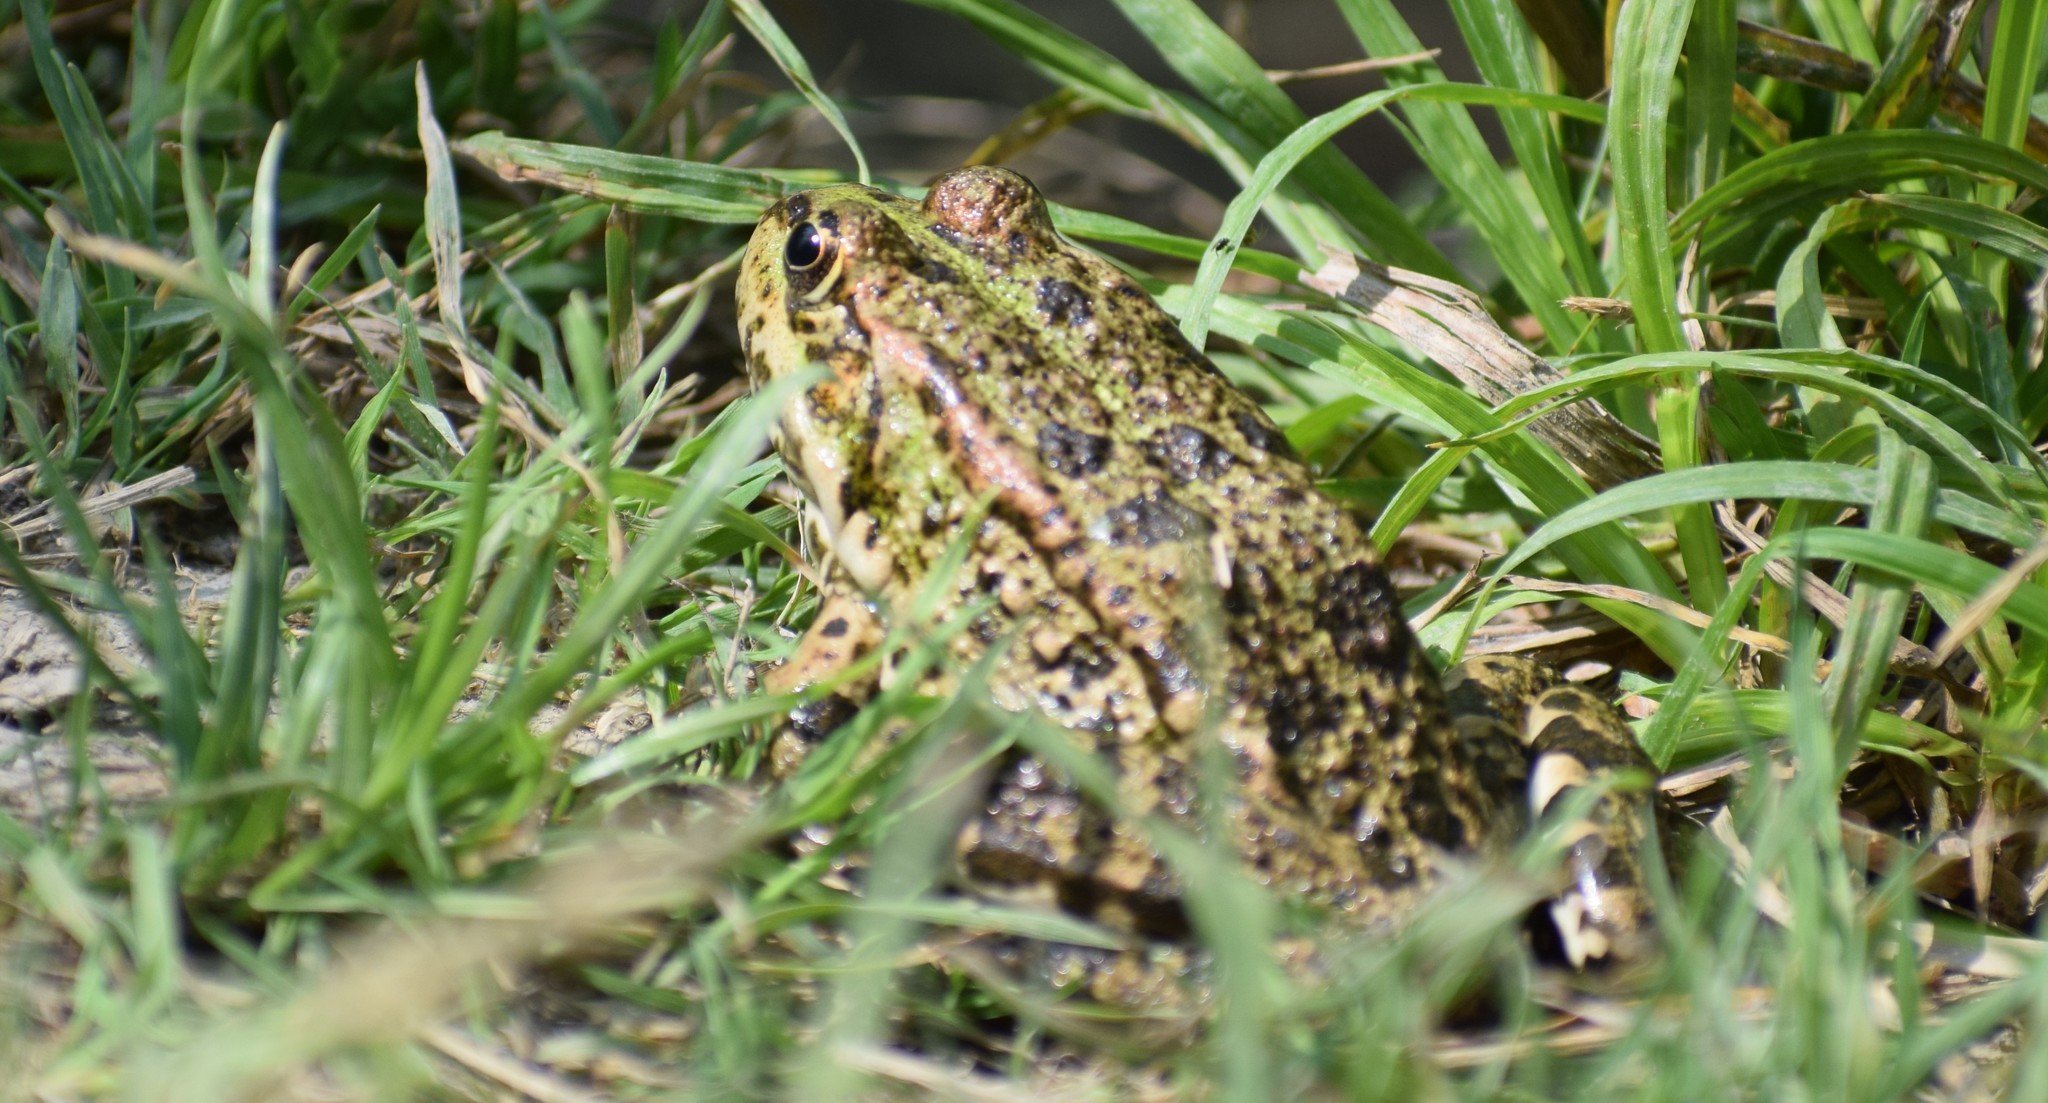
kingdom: Animalia
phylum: Chordata
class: Amphibia
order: Anura
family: Ranidae
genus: Pelophylax
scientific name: Pelophylax
